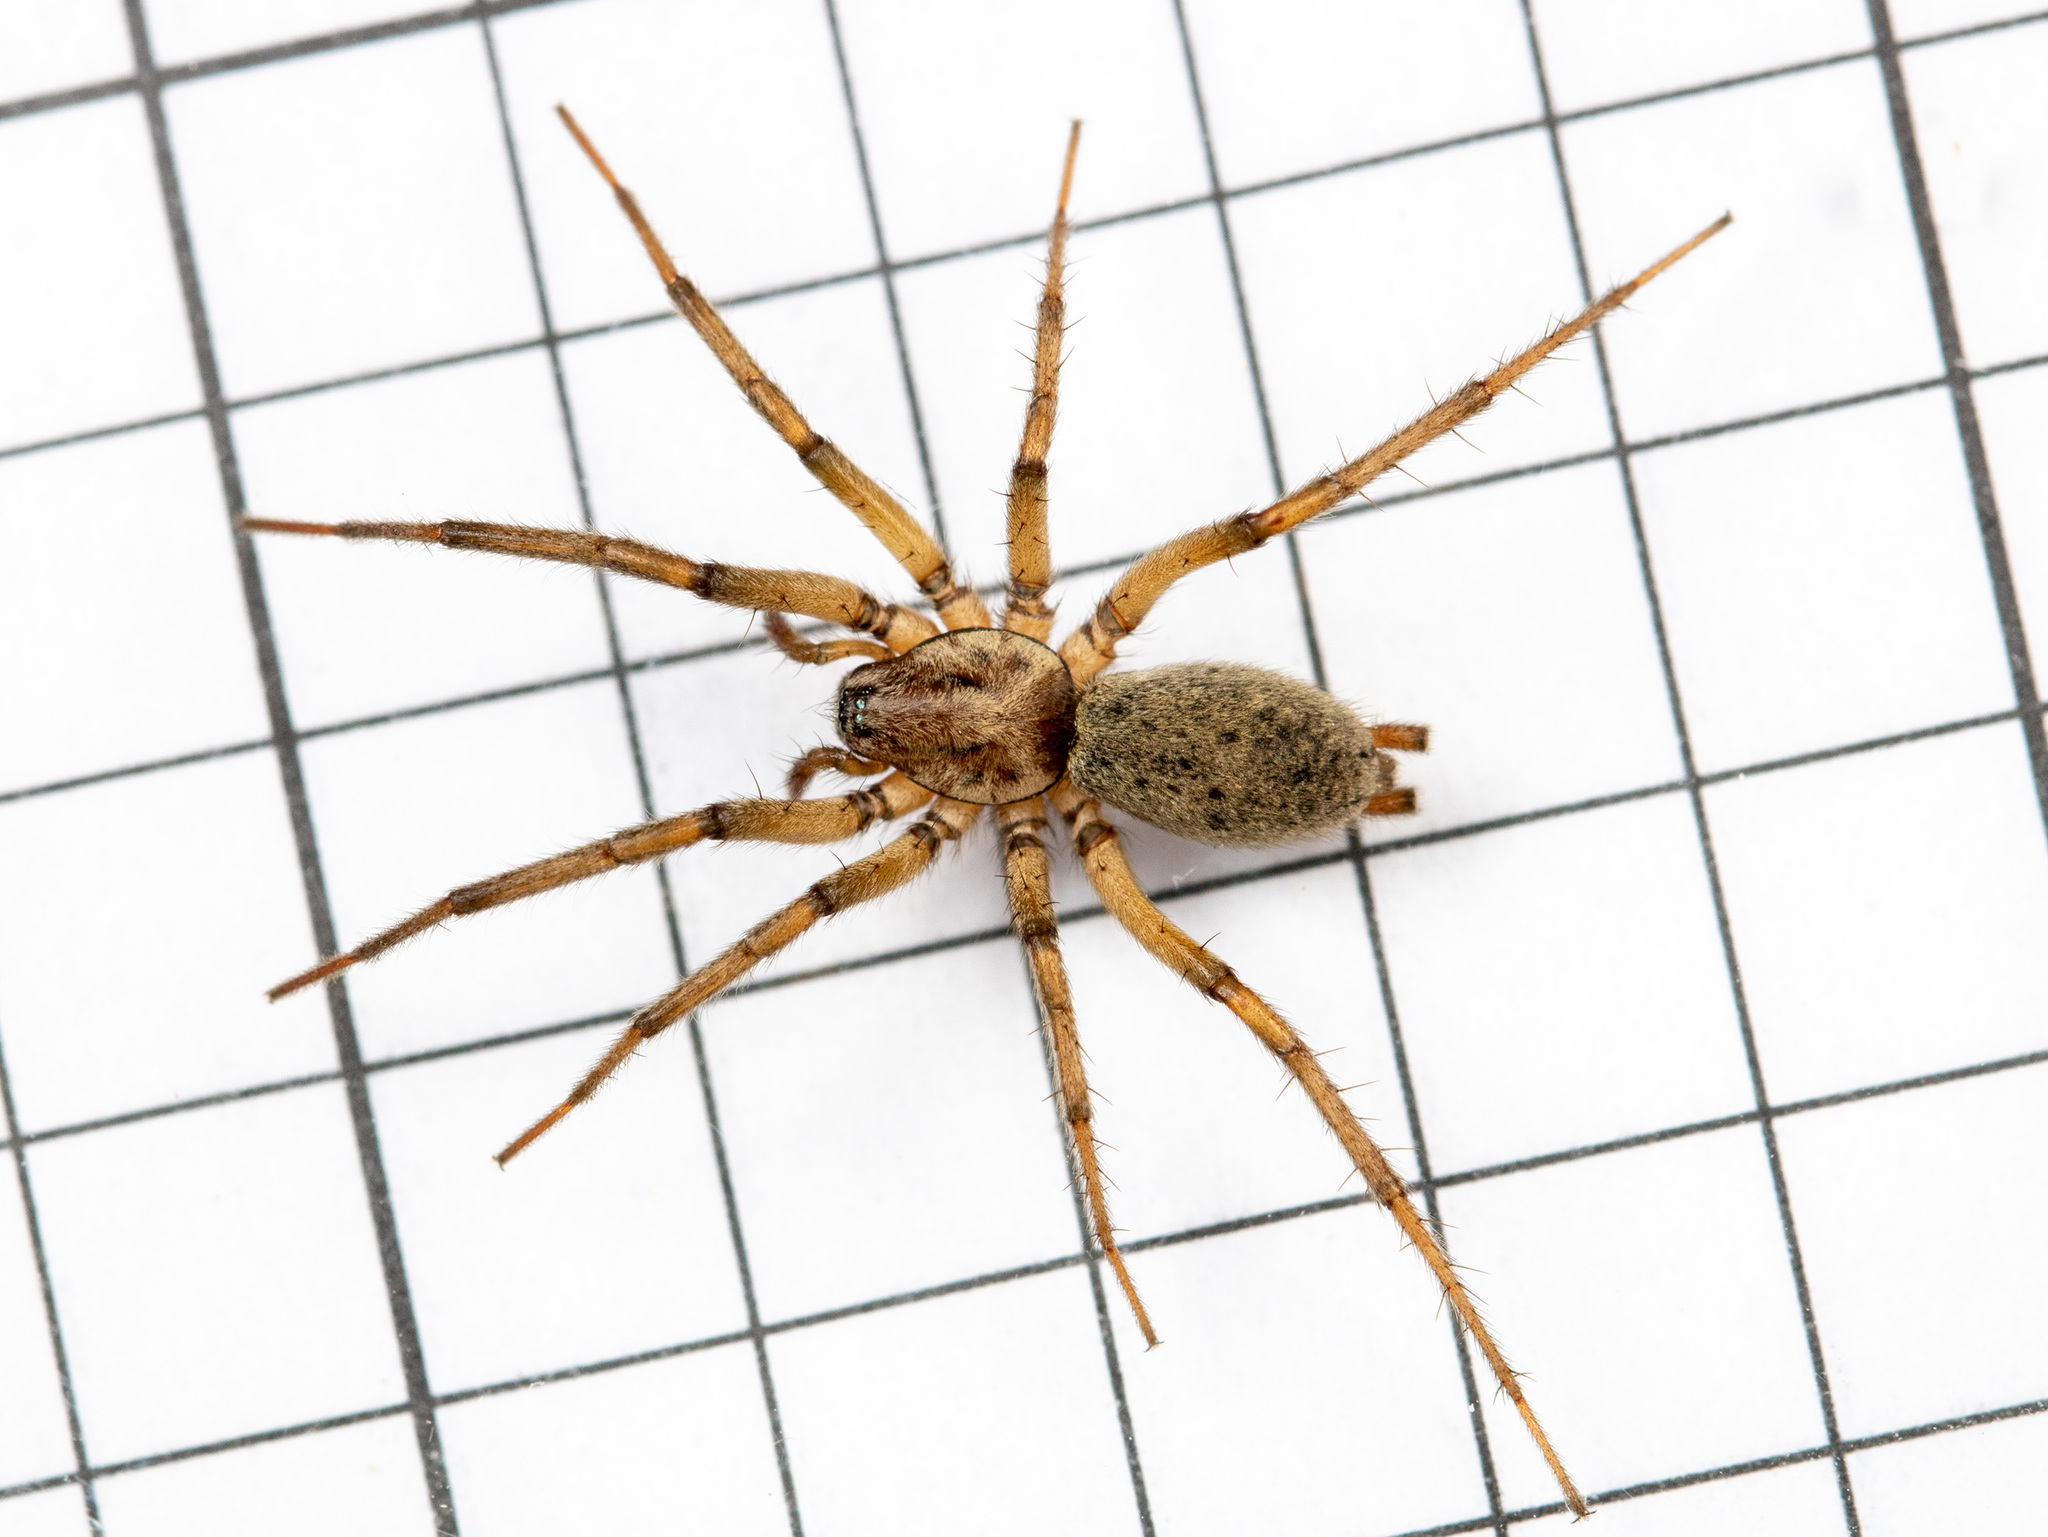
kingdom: Animalia
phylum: Arthropoda
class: Arachnida
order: Araneae
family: Gnaphosidae
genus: Nomisia
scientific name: Nomisia aussereri
